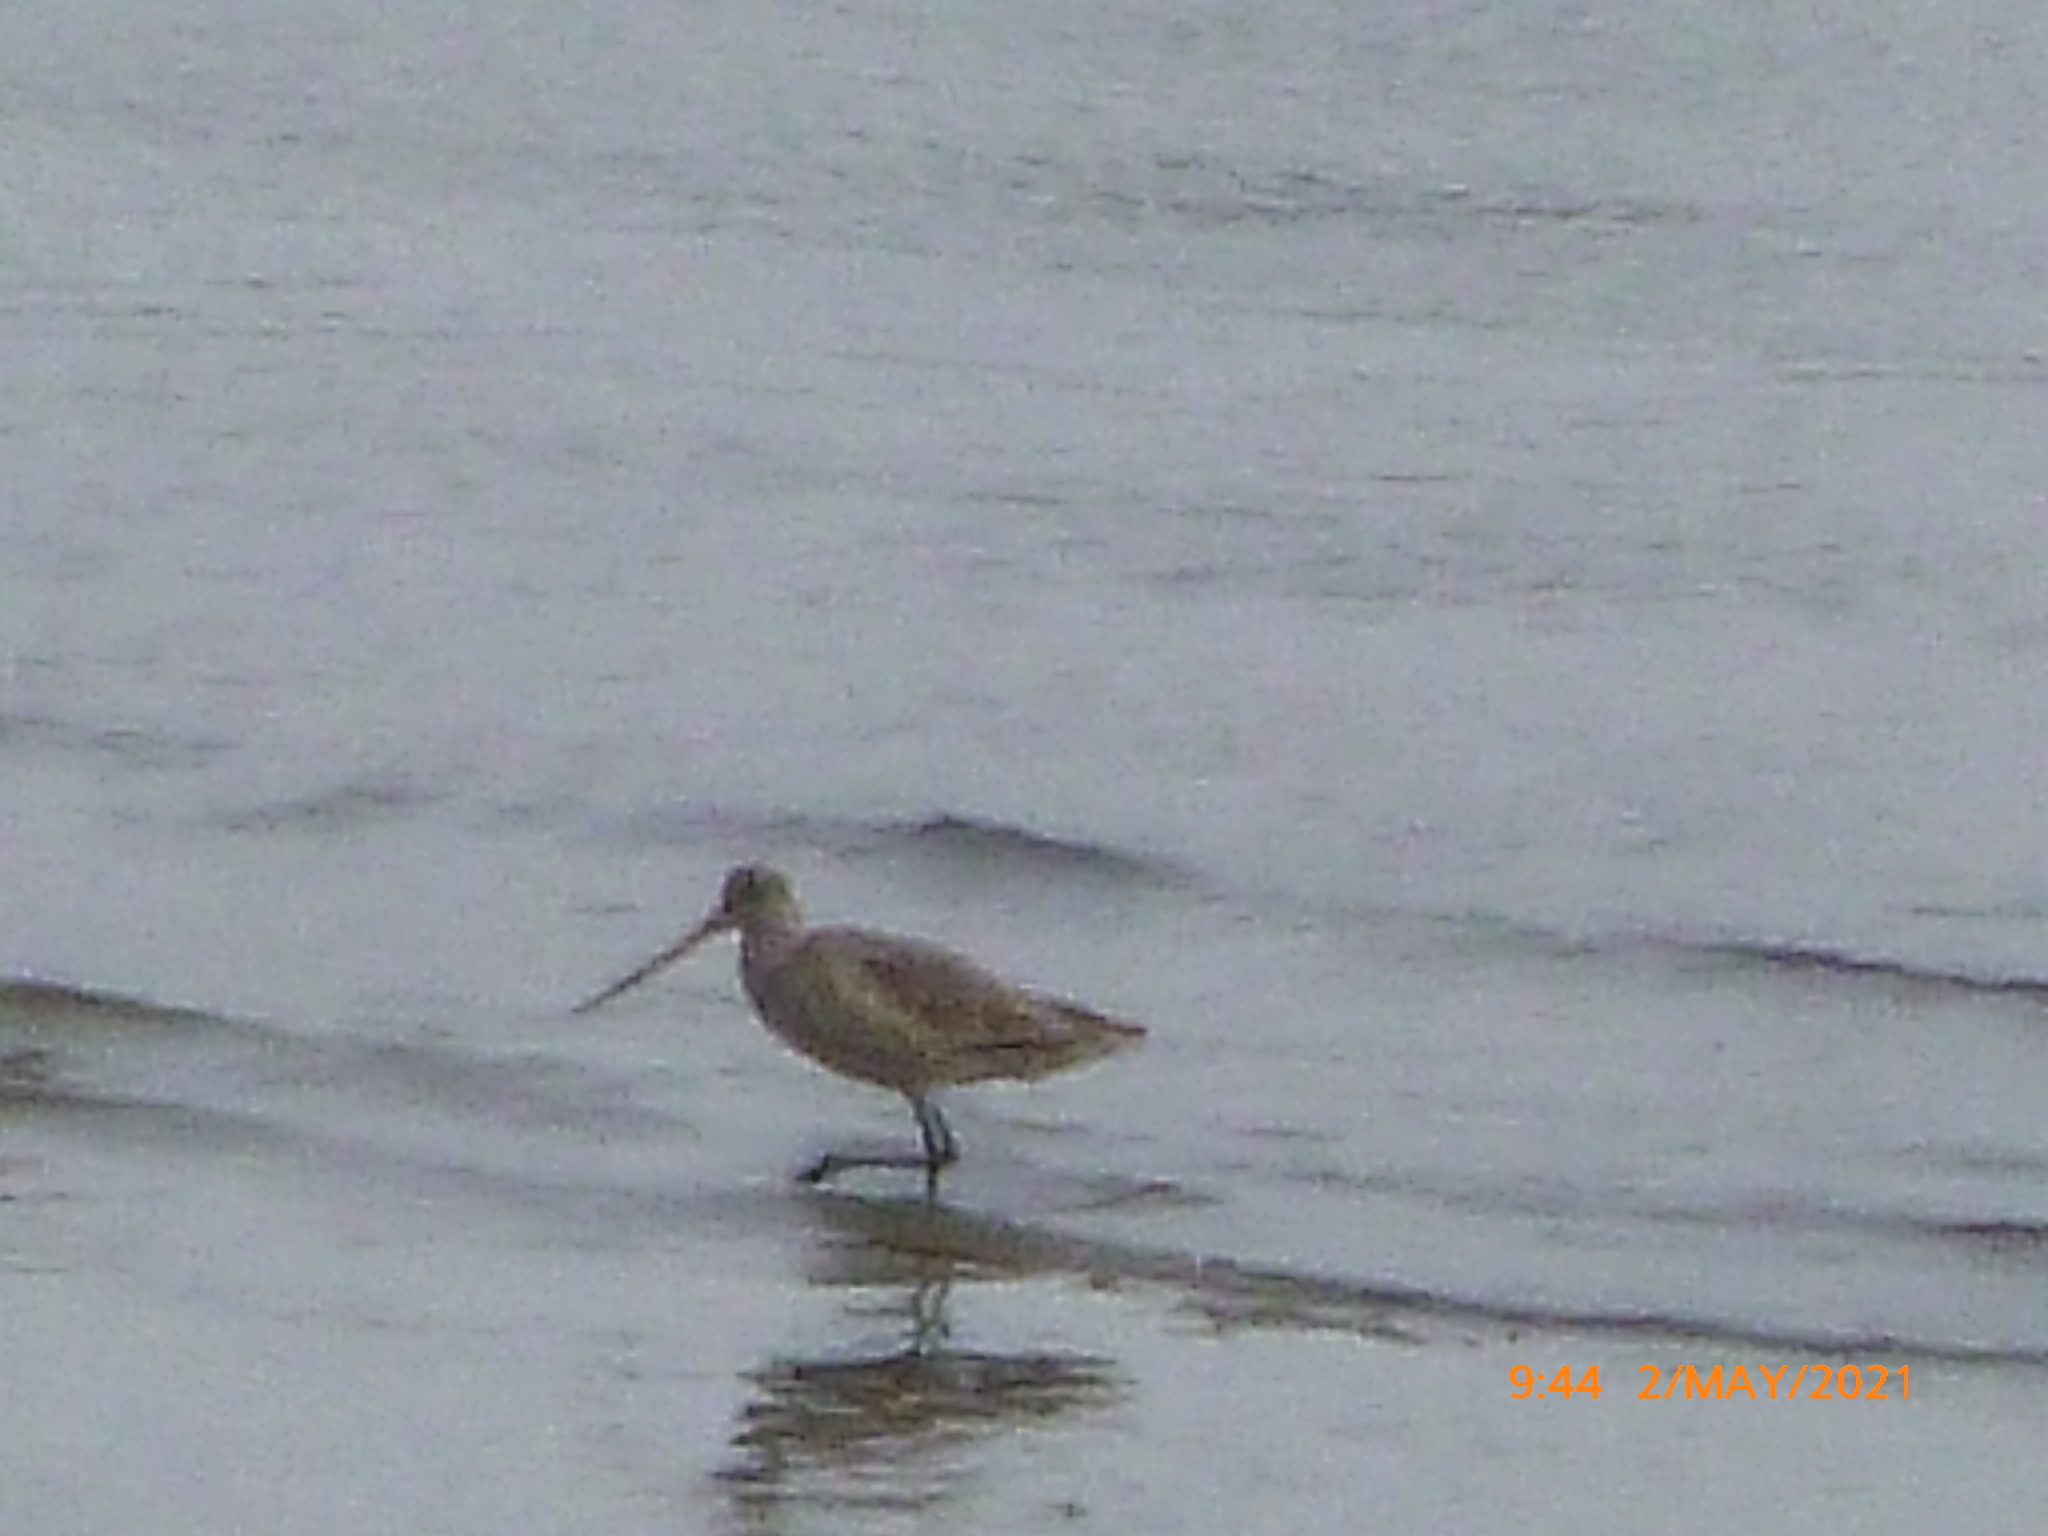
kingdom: Animalia
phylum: Chordata
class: Aves
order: Charadriiformes
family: Scolopacidae
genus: Limosa
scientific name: Limosa fedoa
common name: Marbled godwit
